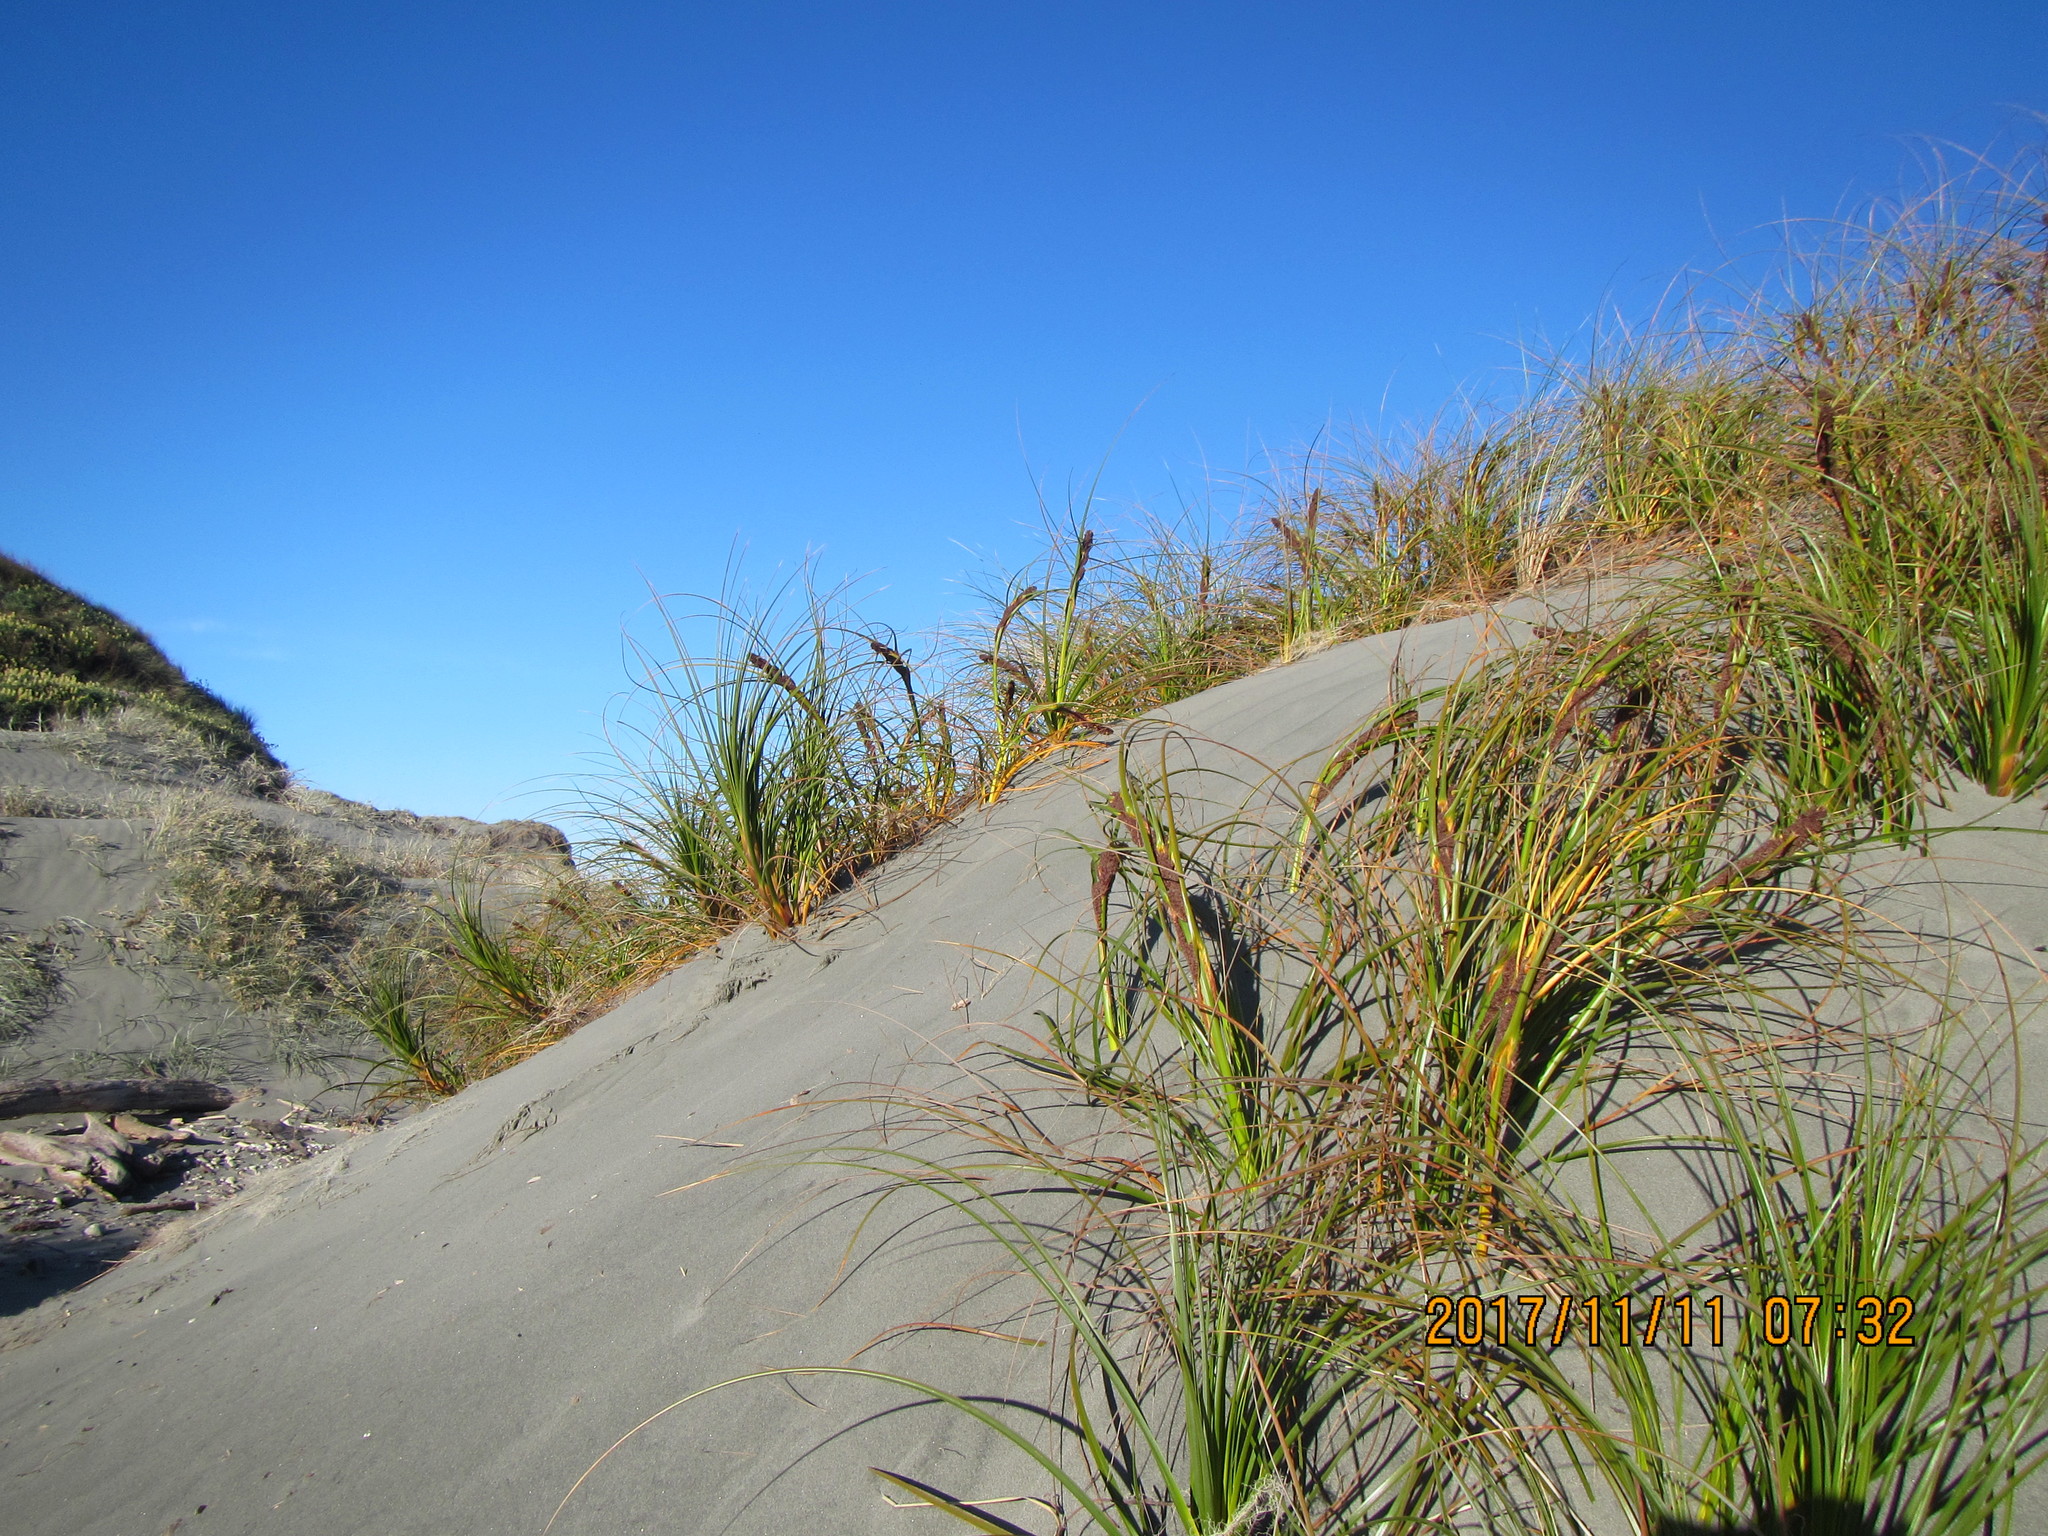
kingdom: Plantae
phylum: Tracheophyta
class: Liliopsida
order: Poales
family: Cyperaceae
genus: Ficinia
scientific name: Ficinia spiralis
